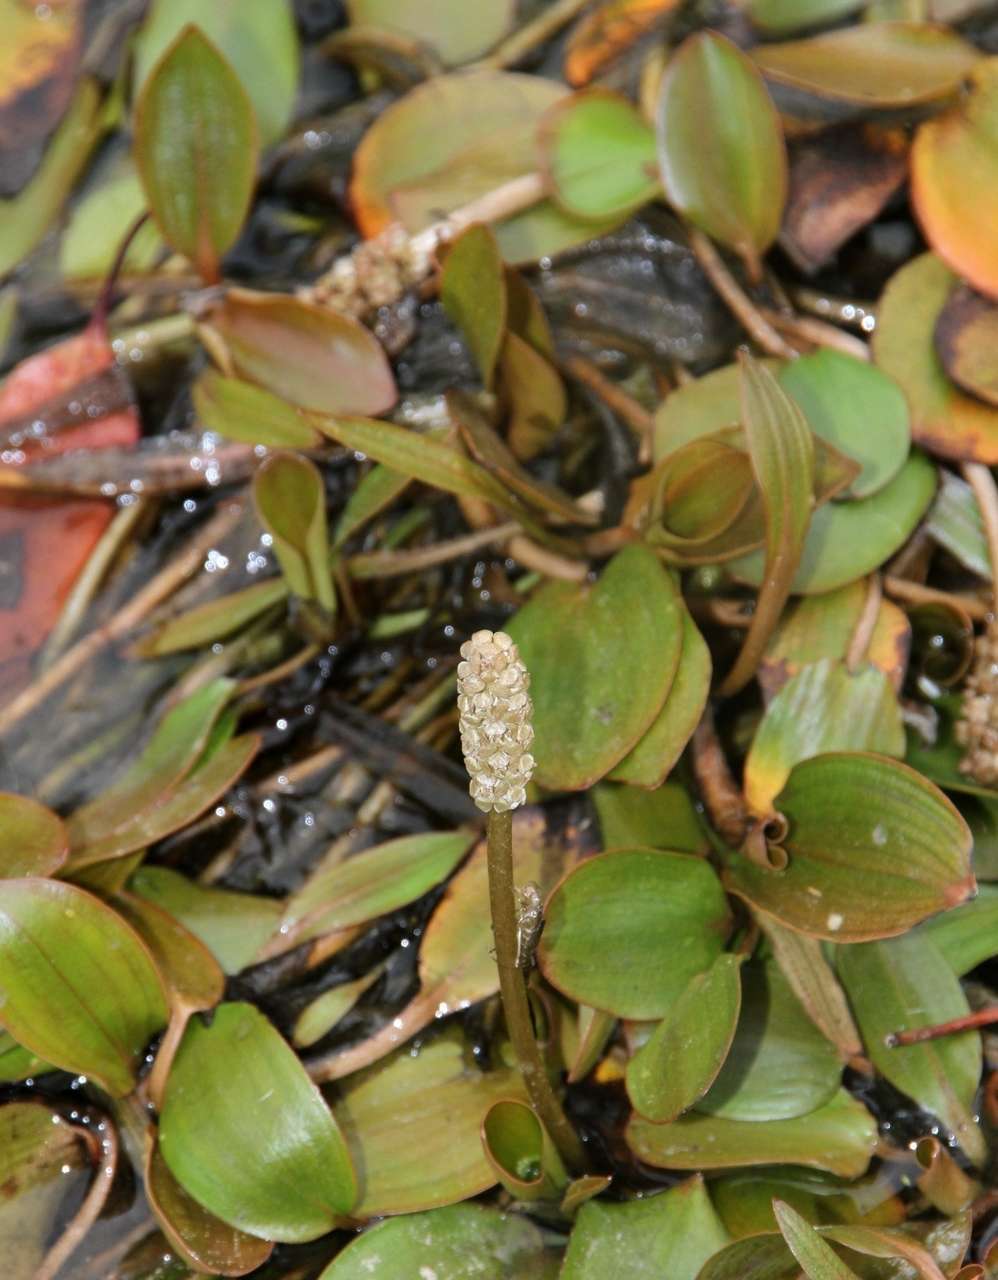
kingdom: Plantae
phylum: Tracheophyta
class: Liliopsida
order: Alismatales
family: Potamogetonaceae
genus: Potamogeton
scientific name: Potamogeton cheesemanii
